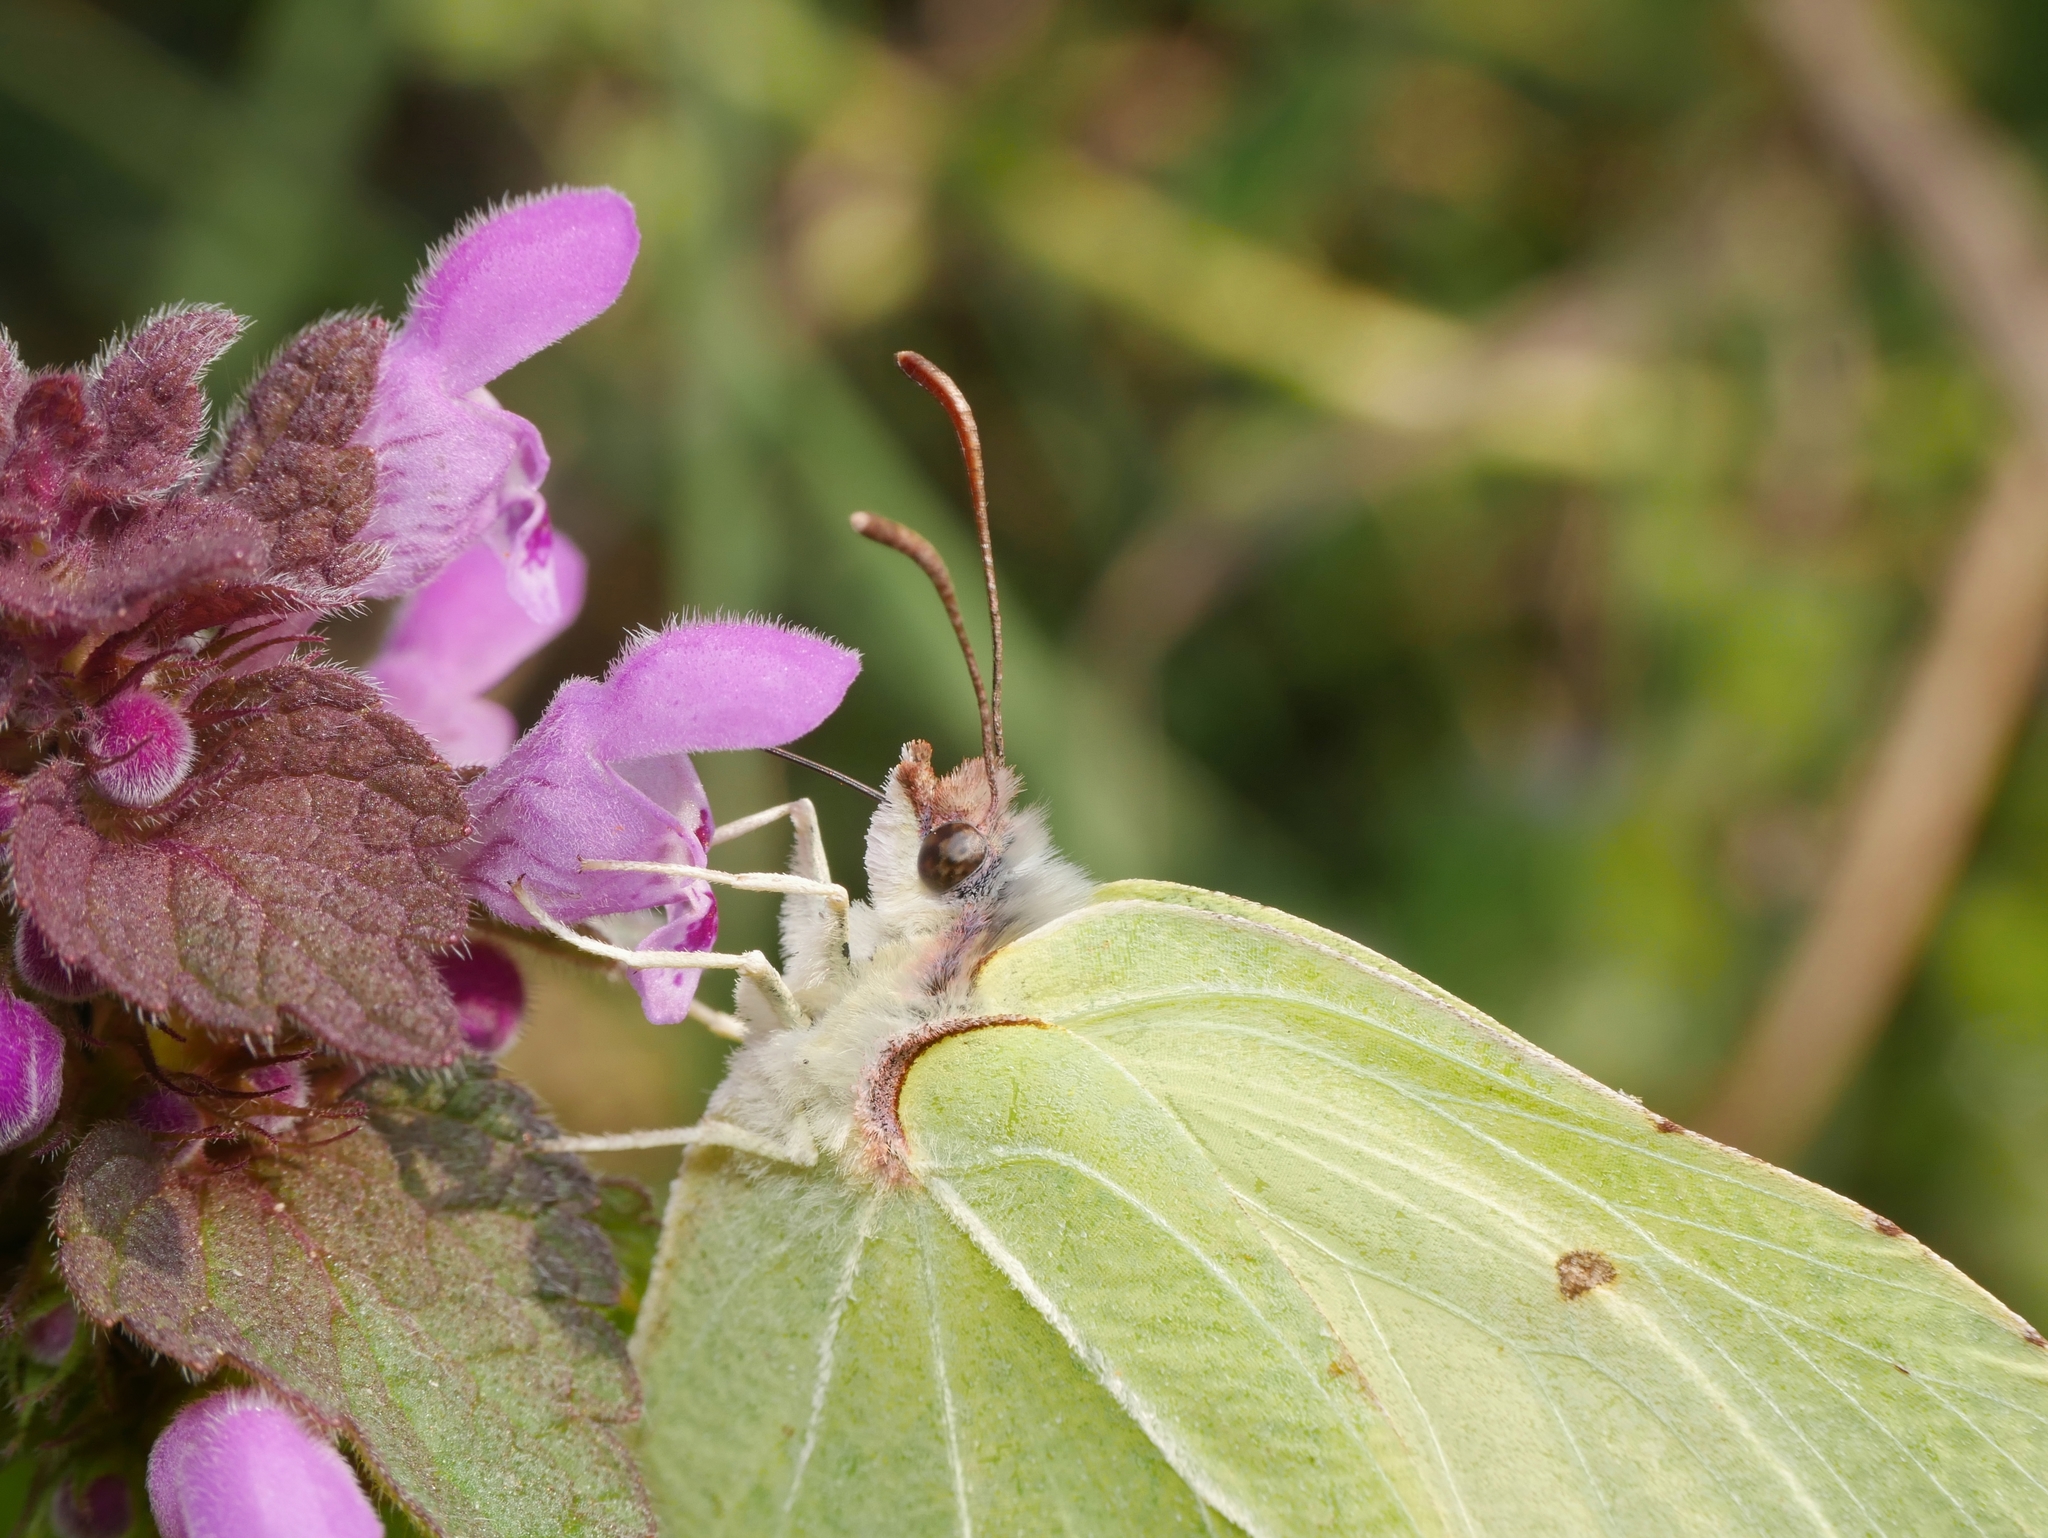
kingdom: Animalia
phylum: Arthropoda
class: Insecta
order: Lepidoptera
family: Pieridae
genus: Gonepteryx
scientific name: Gonepteryx rhamni
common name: Brimstone
